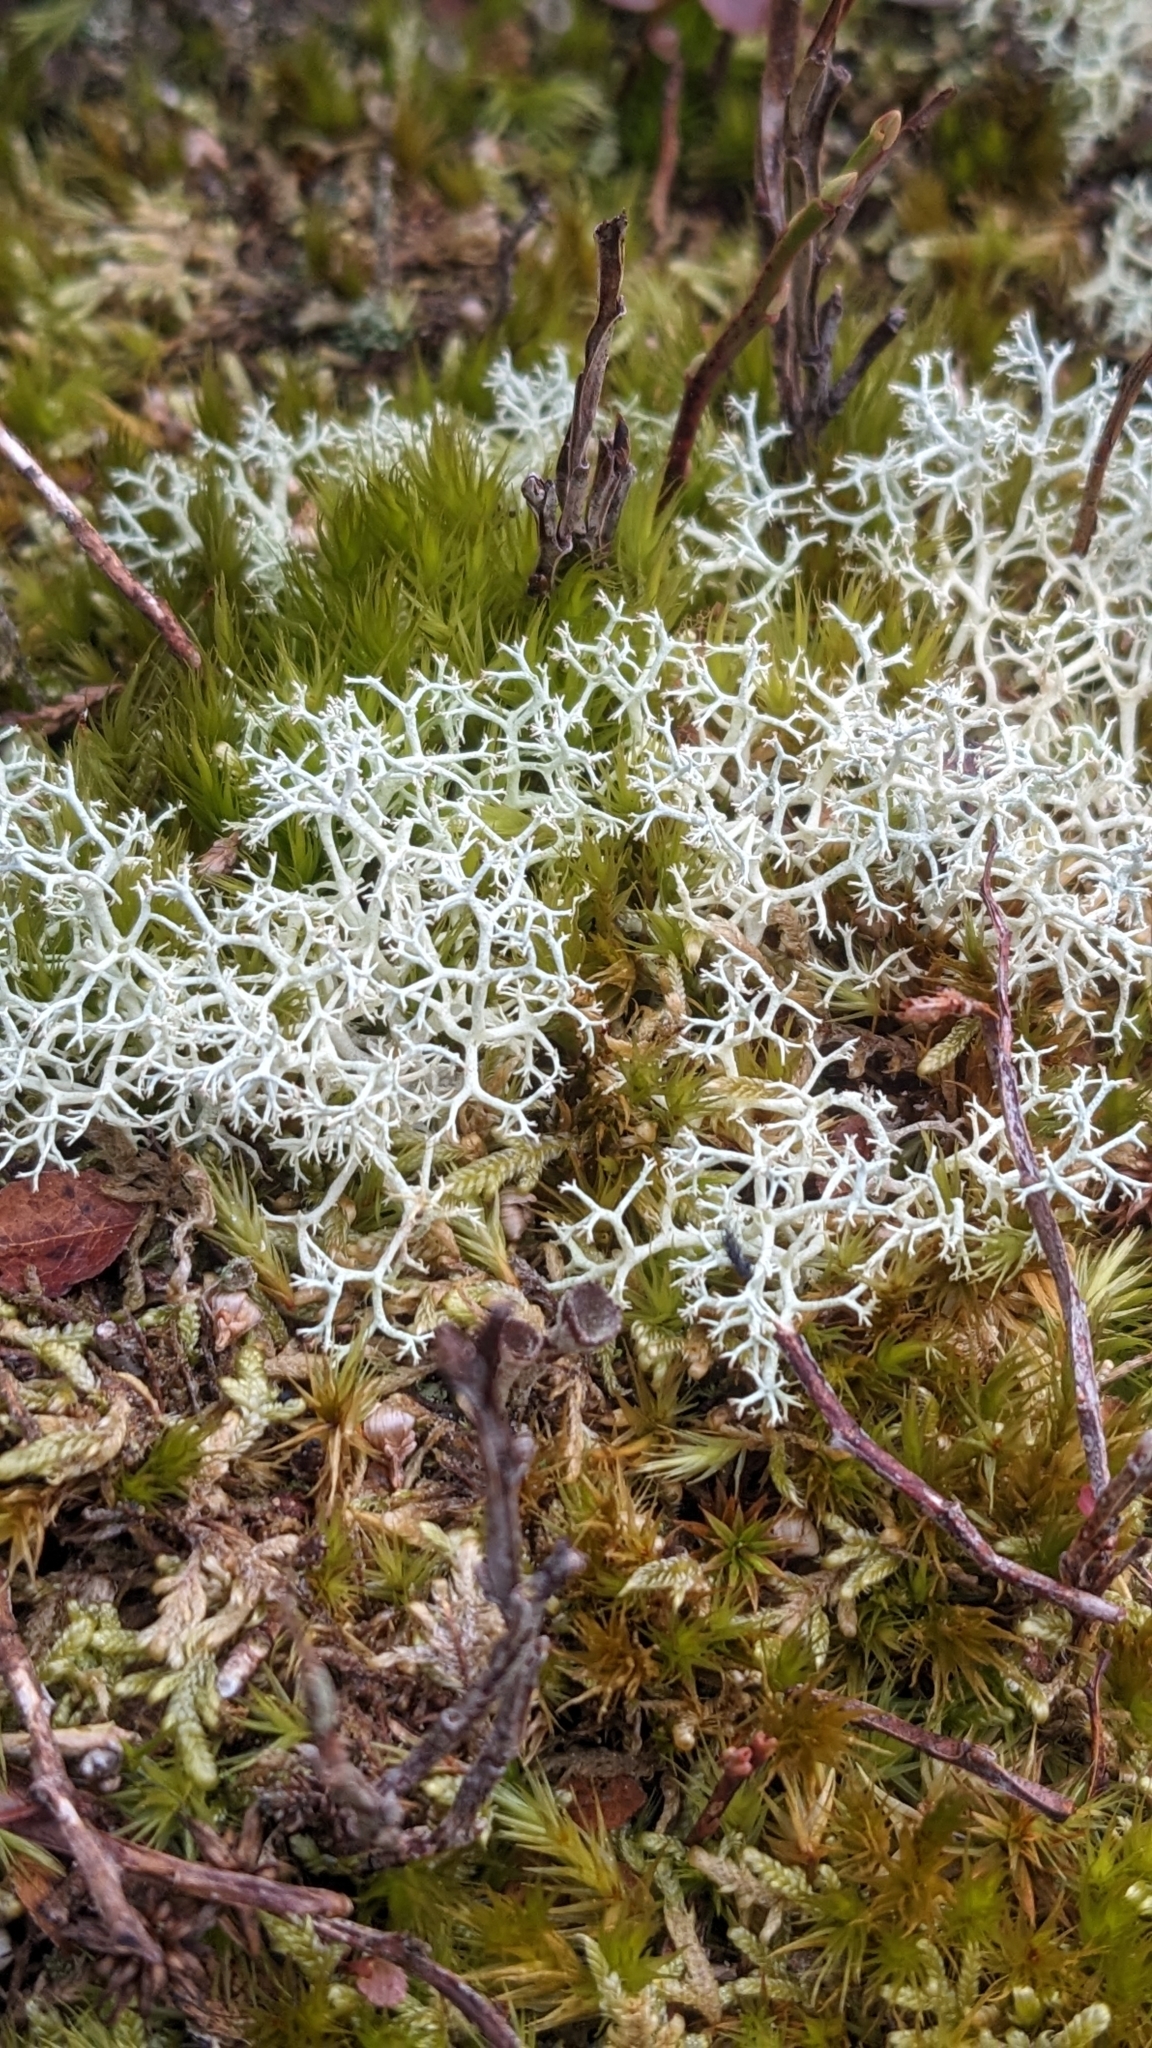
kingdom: Fungi
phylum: Ascomycota
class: Lecanoromycetes
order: Lecanorales
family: Cladoniaceae
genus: Cladonia
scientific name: Cladonia portentosa
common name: Reindeer lichen
